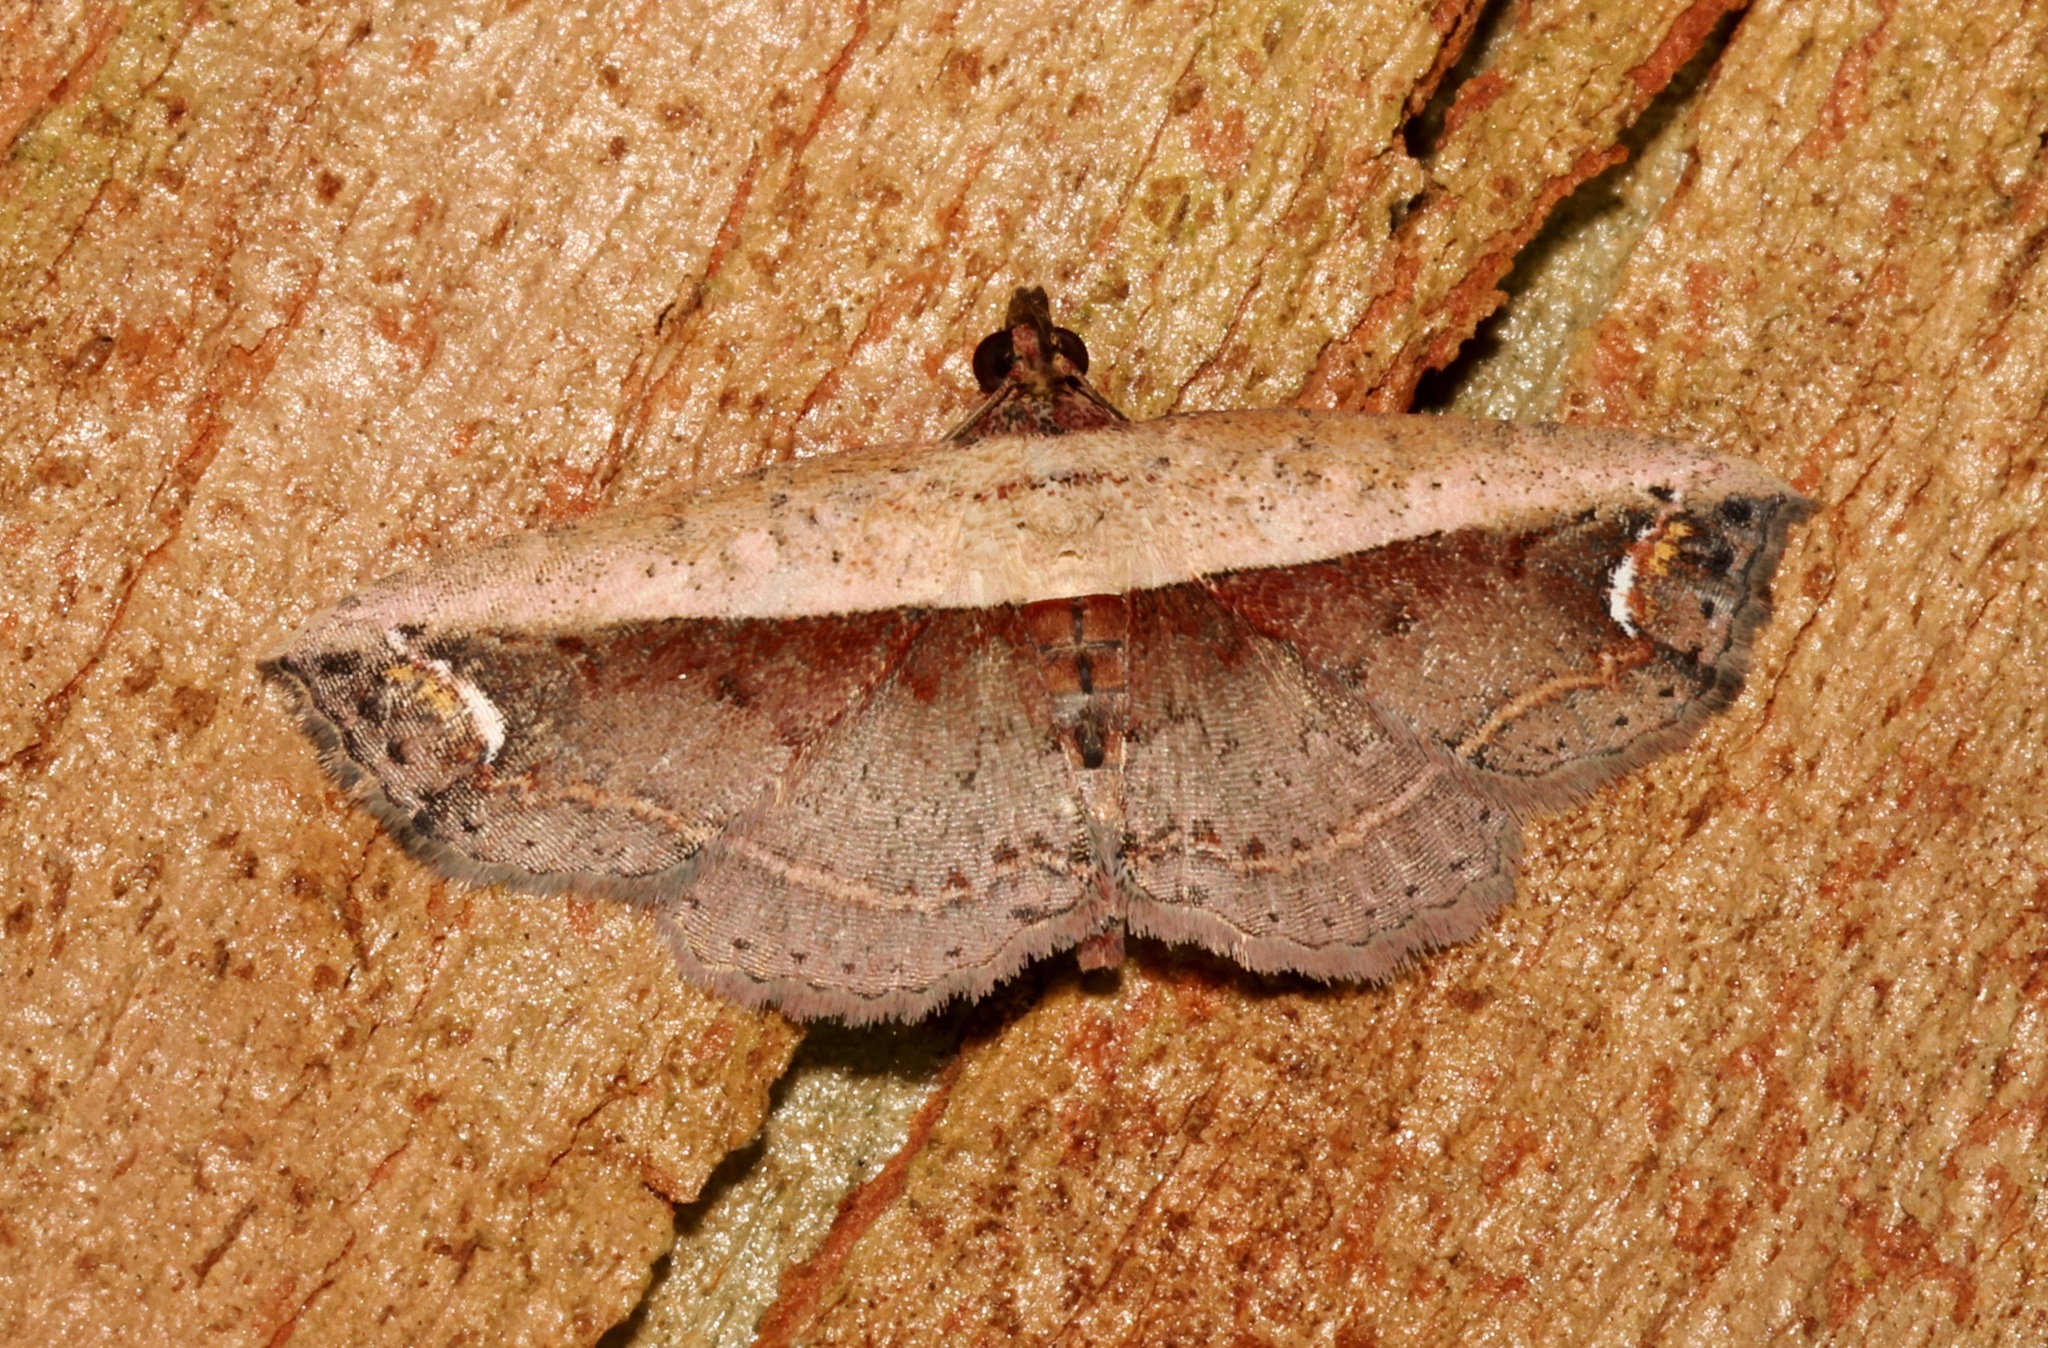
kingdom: Animalia
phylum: Arthropoda
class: Insecta
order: Lepidoptera
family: Noctuidae
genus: Eugnathia
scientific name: Eugnathia lunifera
